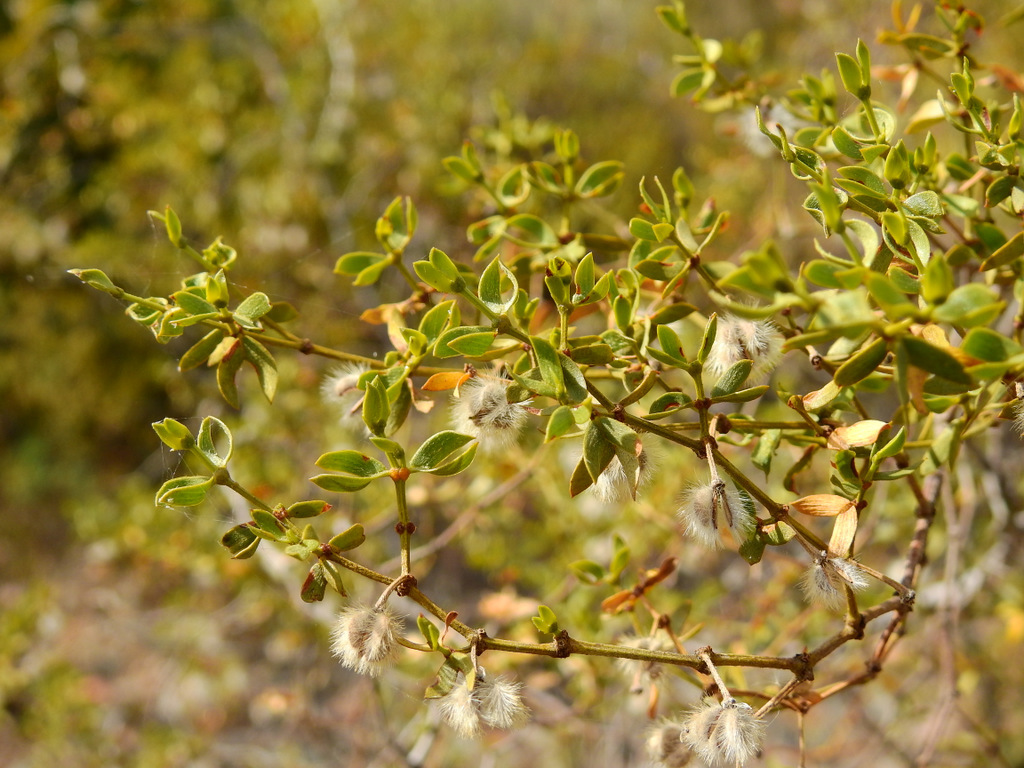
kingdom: Plantae
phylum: Tracheophyta
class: Magnoliopsida
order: Zygophyllales
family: Zygophyllaceae
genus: Larrea
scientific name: Larrea divaricata
